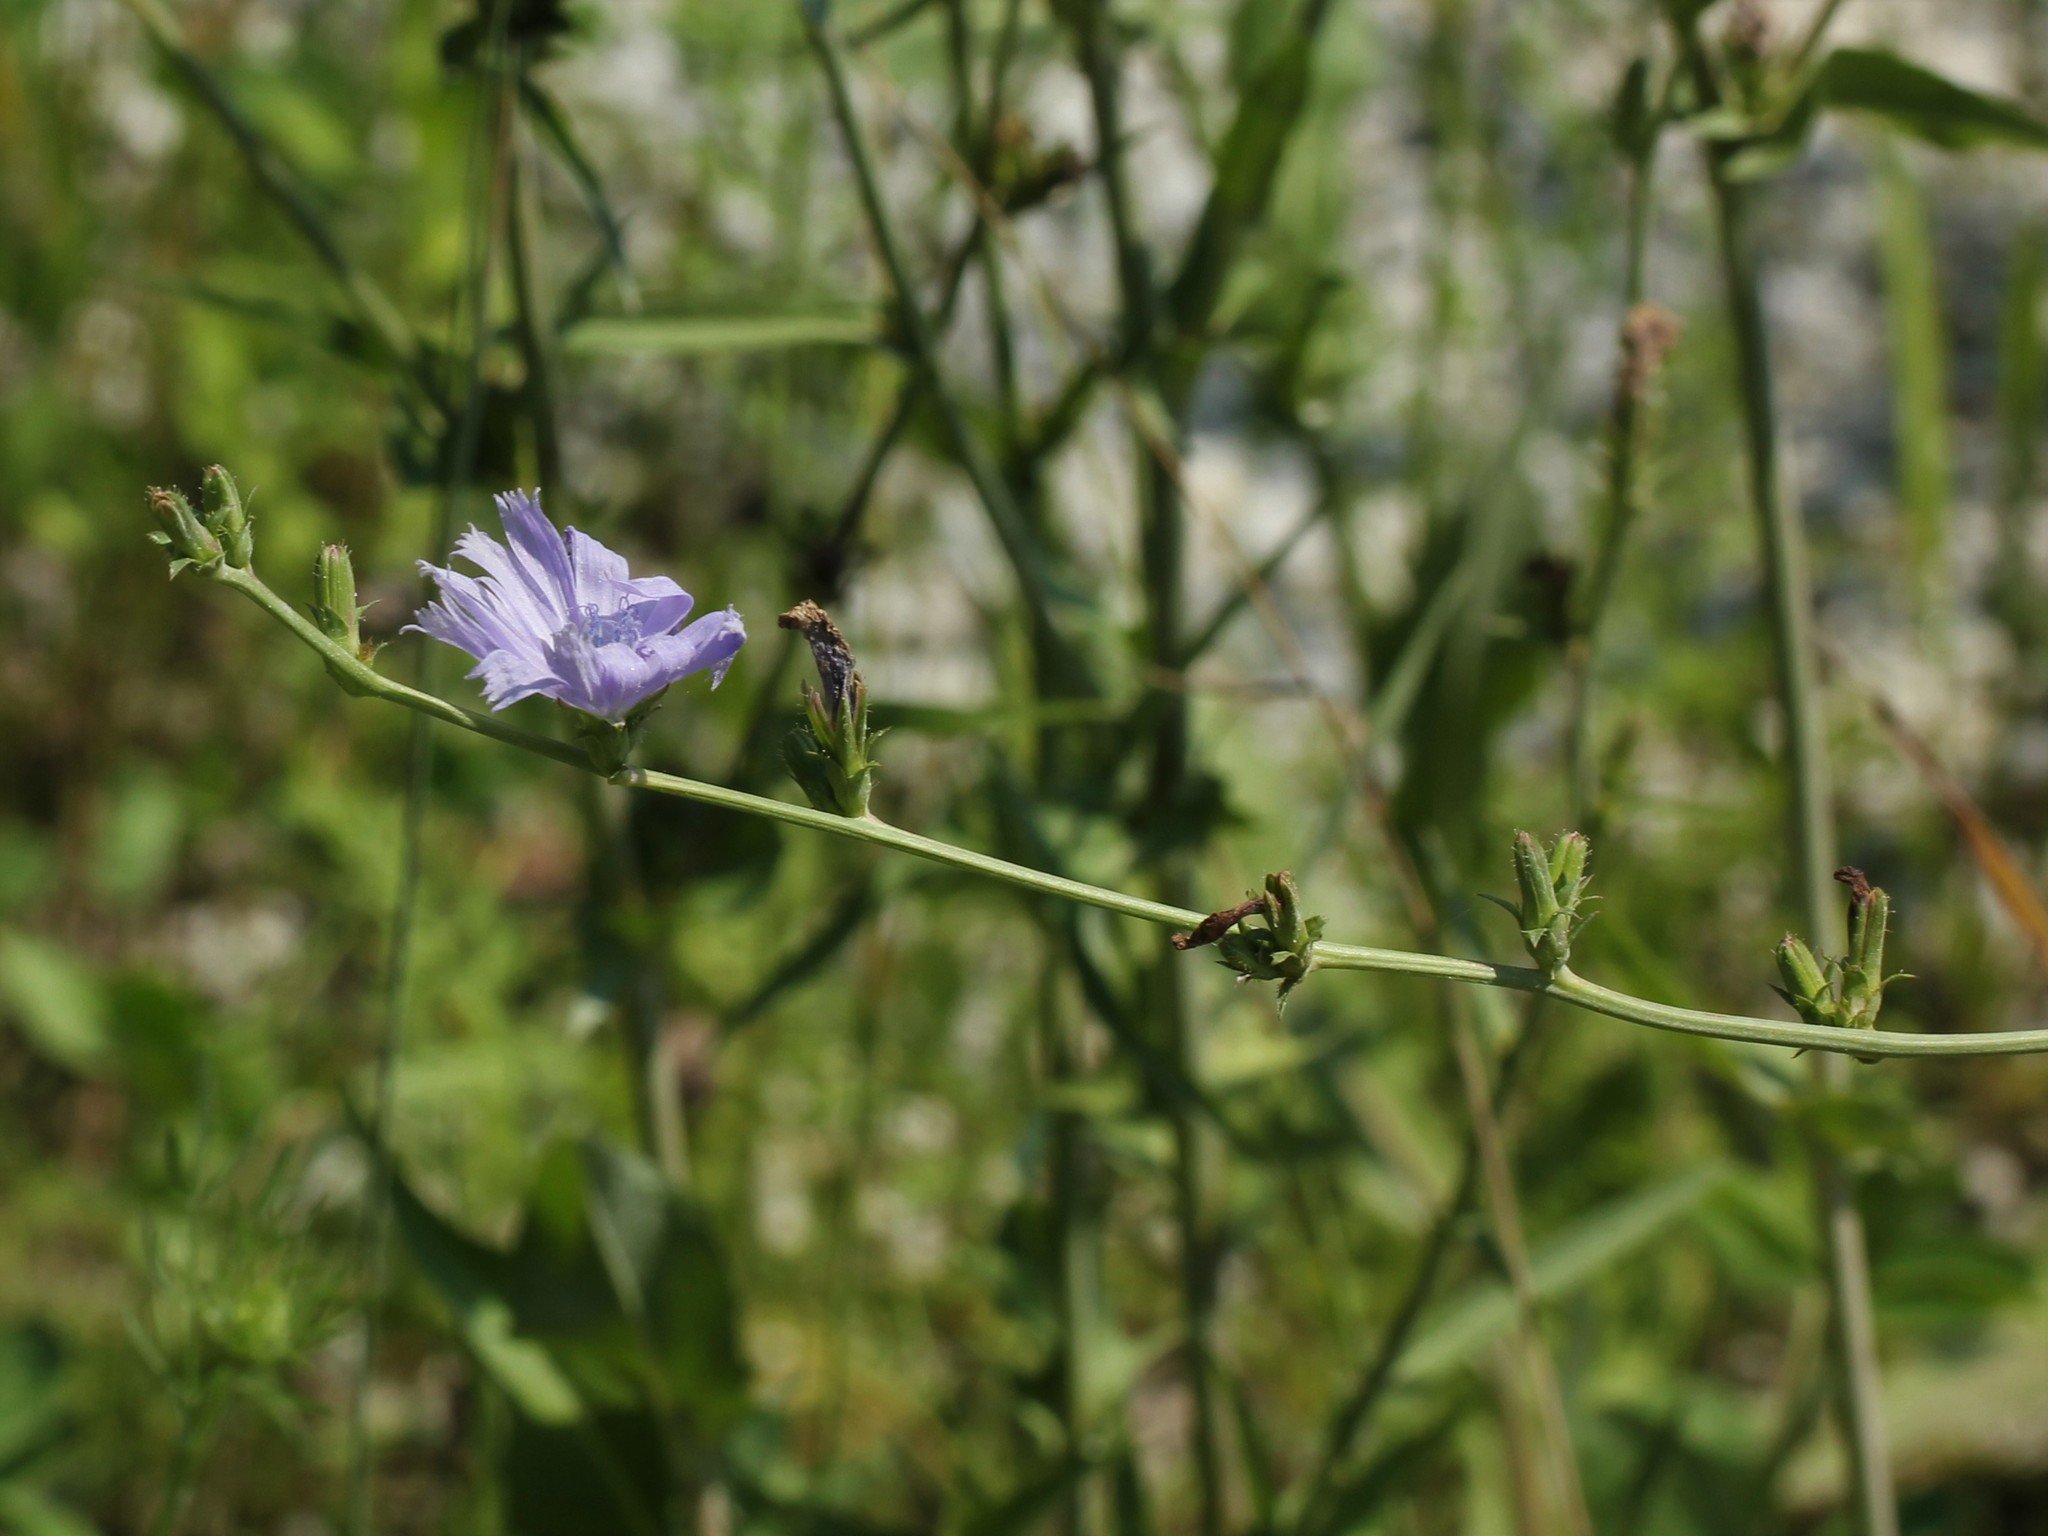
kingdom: Plantae
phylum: Tracheophyta
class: Magnoliopsida
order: Asterales
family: Asteraceae
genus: Cichorium
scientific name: Cichorium intybus
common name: Chicory
